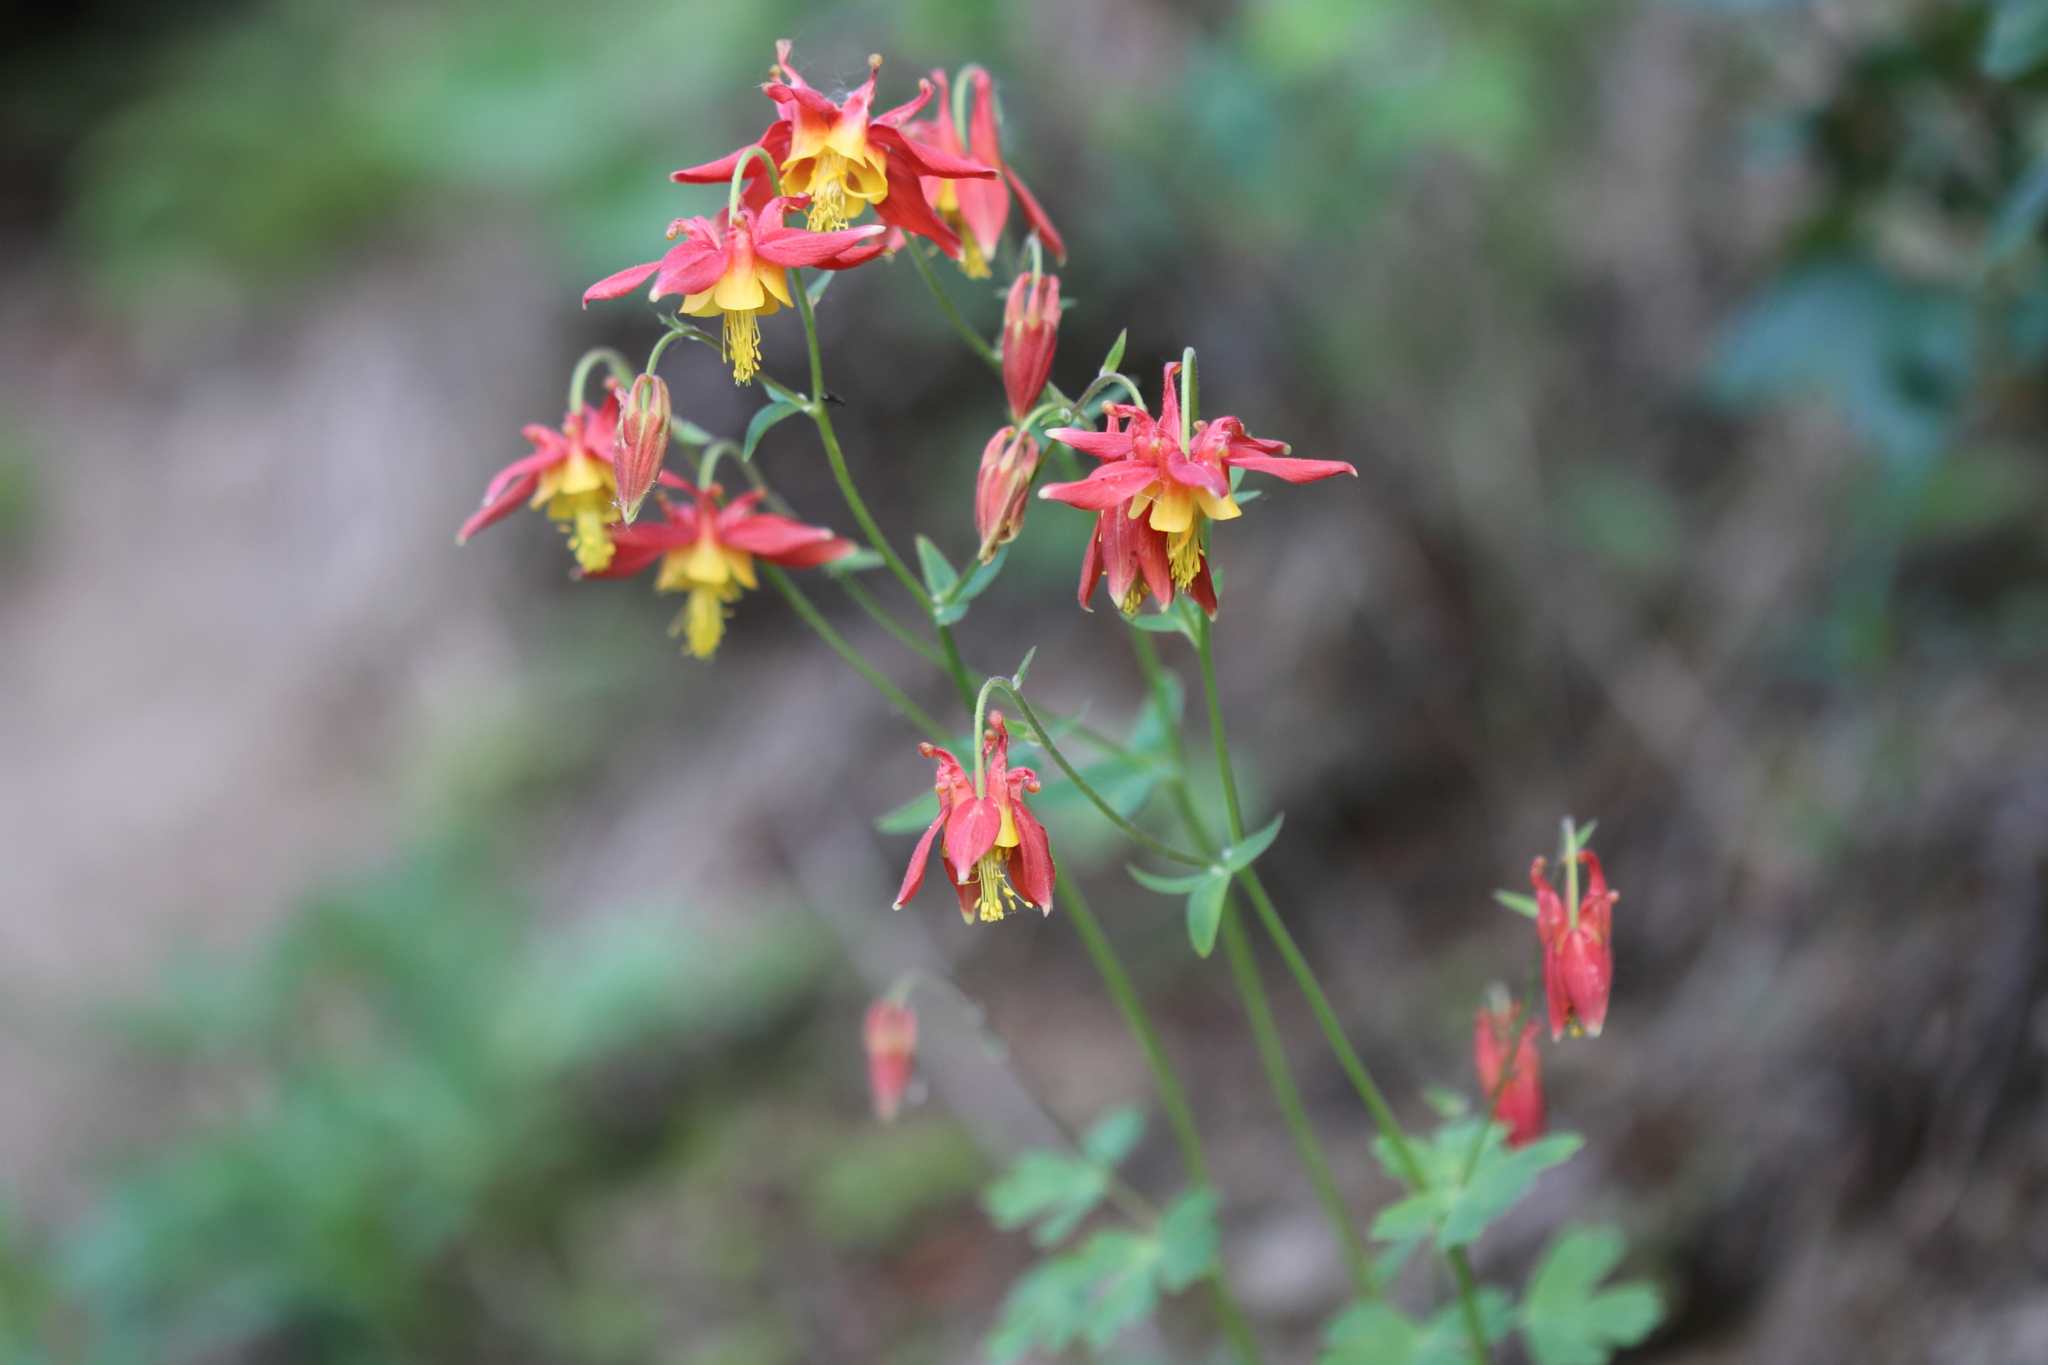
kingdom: Plantae
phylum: Tracheophyta
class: Magnoliopsida
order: Ranunculales
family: Ranunculaceae
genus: Aquilegia
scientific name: Aquilegia formosa
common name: Sitka columbine
